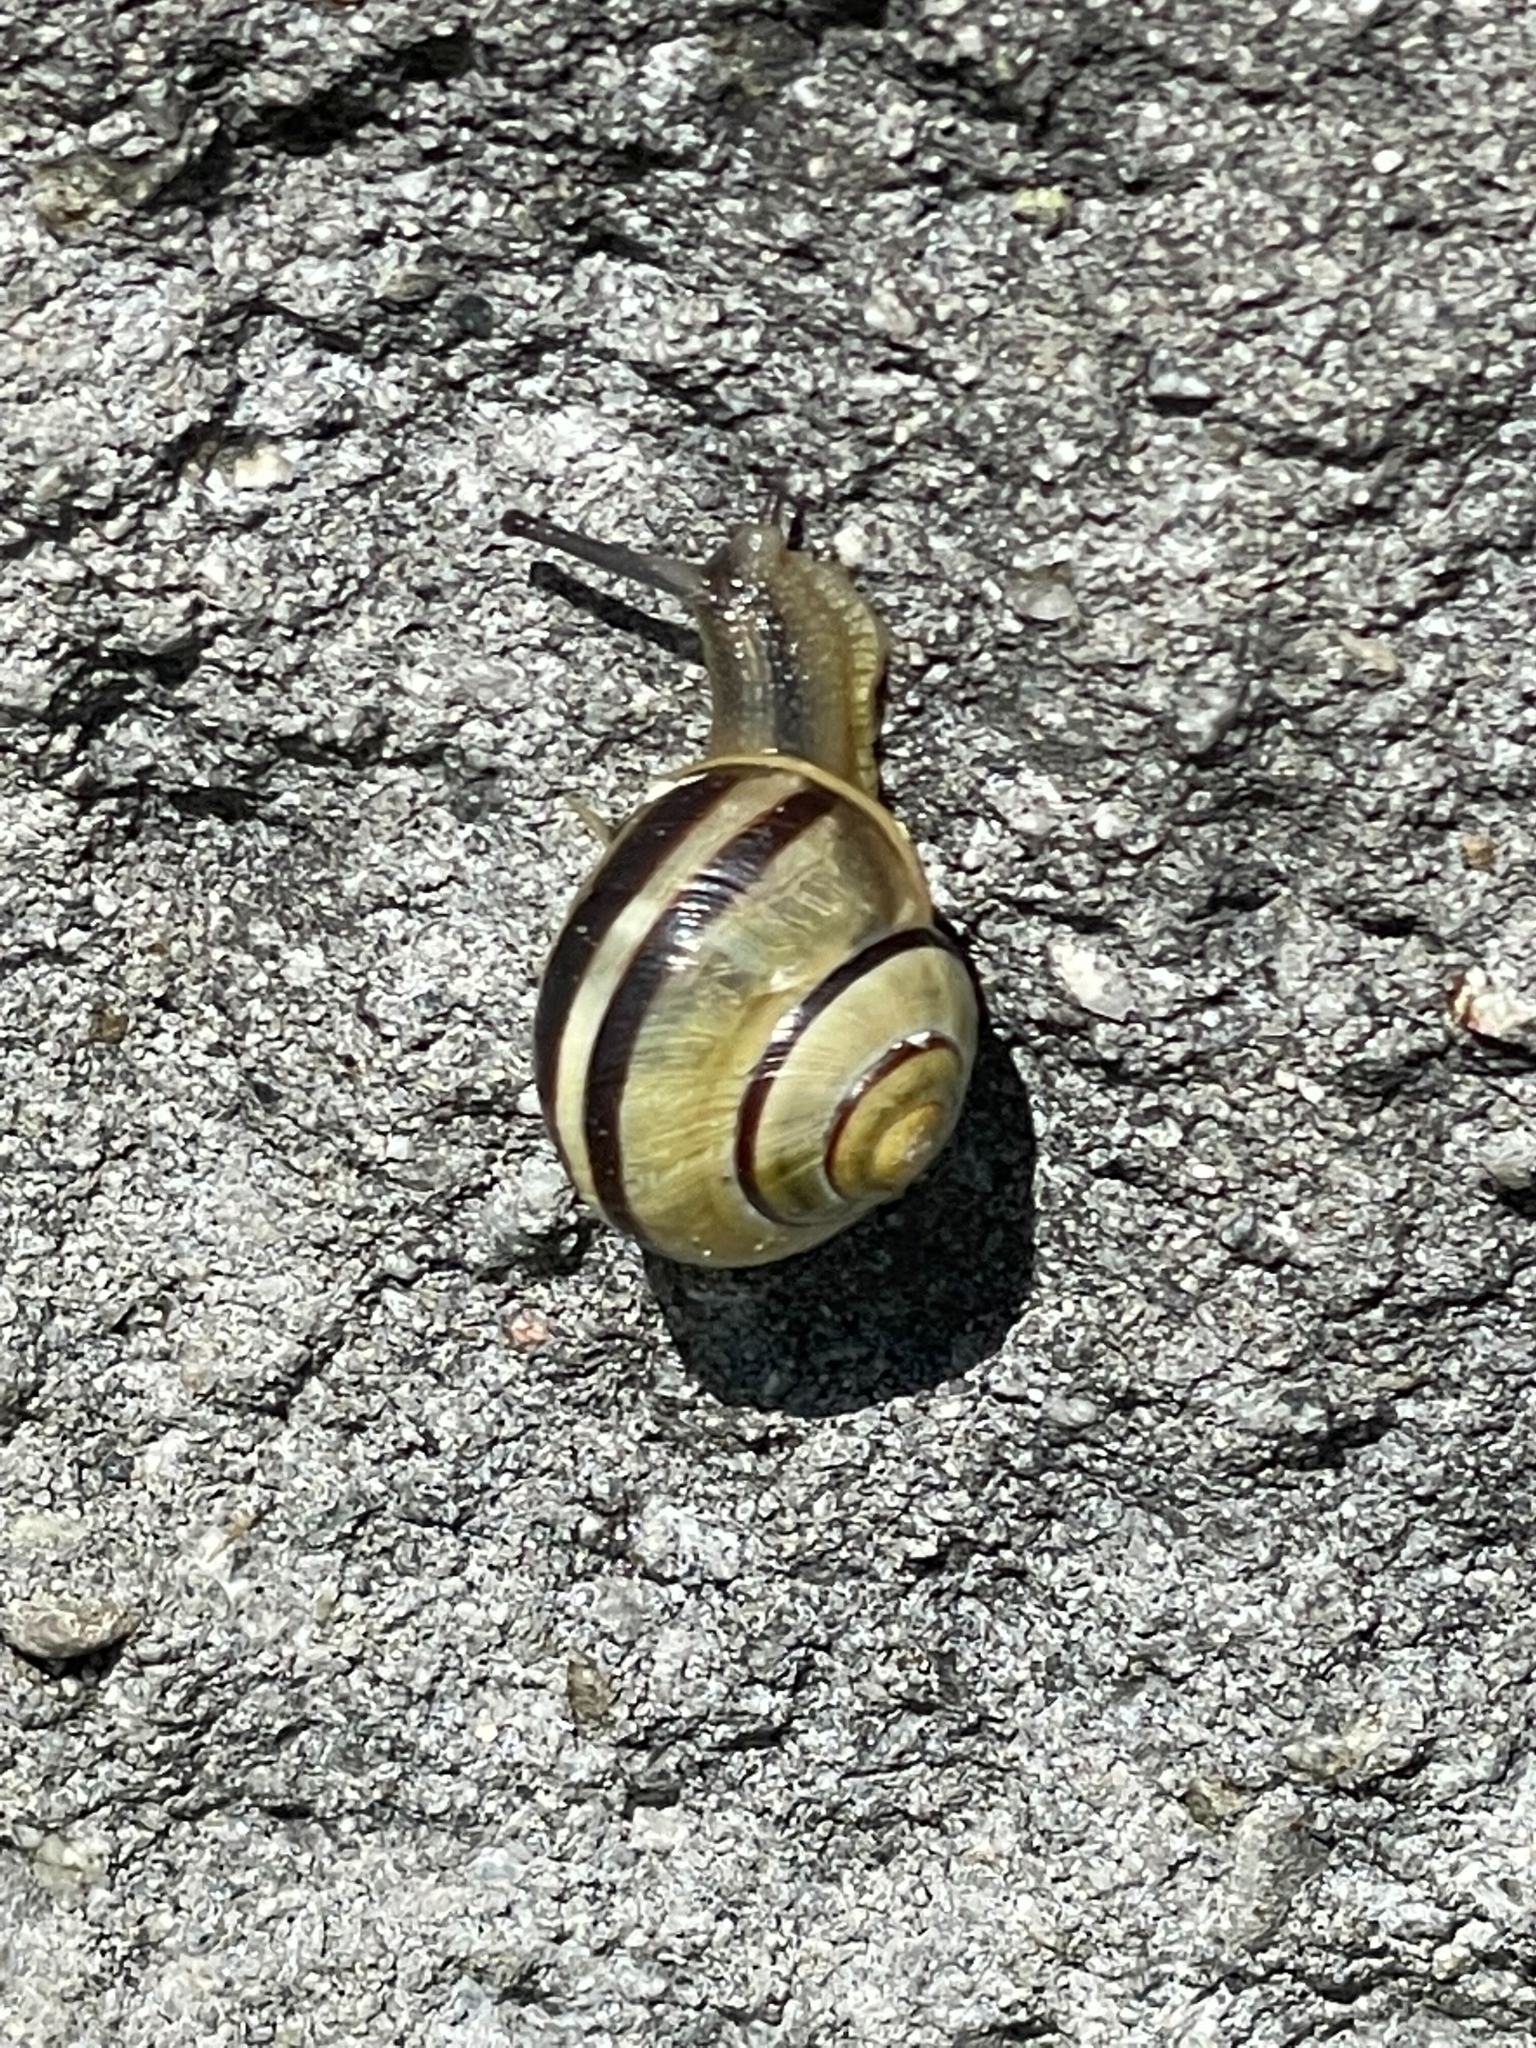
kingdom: Animalia
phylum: Mollusca
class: Gastropoda
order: Stylommatophora
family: Helicidae
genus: Cepaea
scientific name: Cepaea nemoralis
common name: Grovesnail
